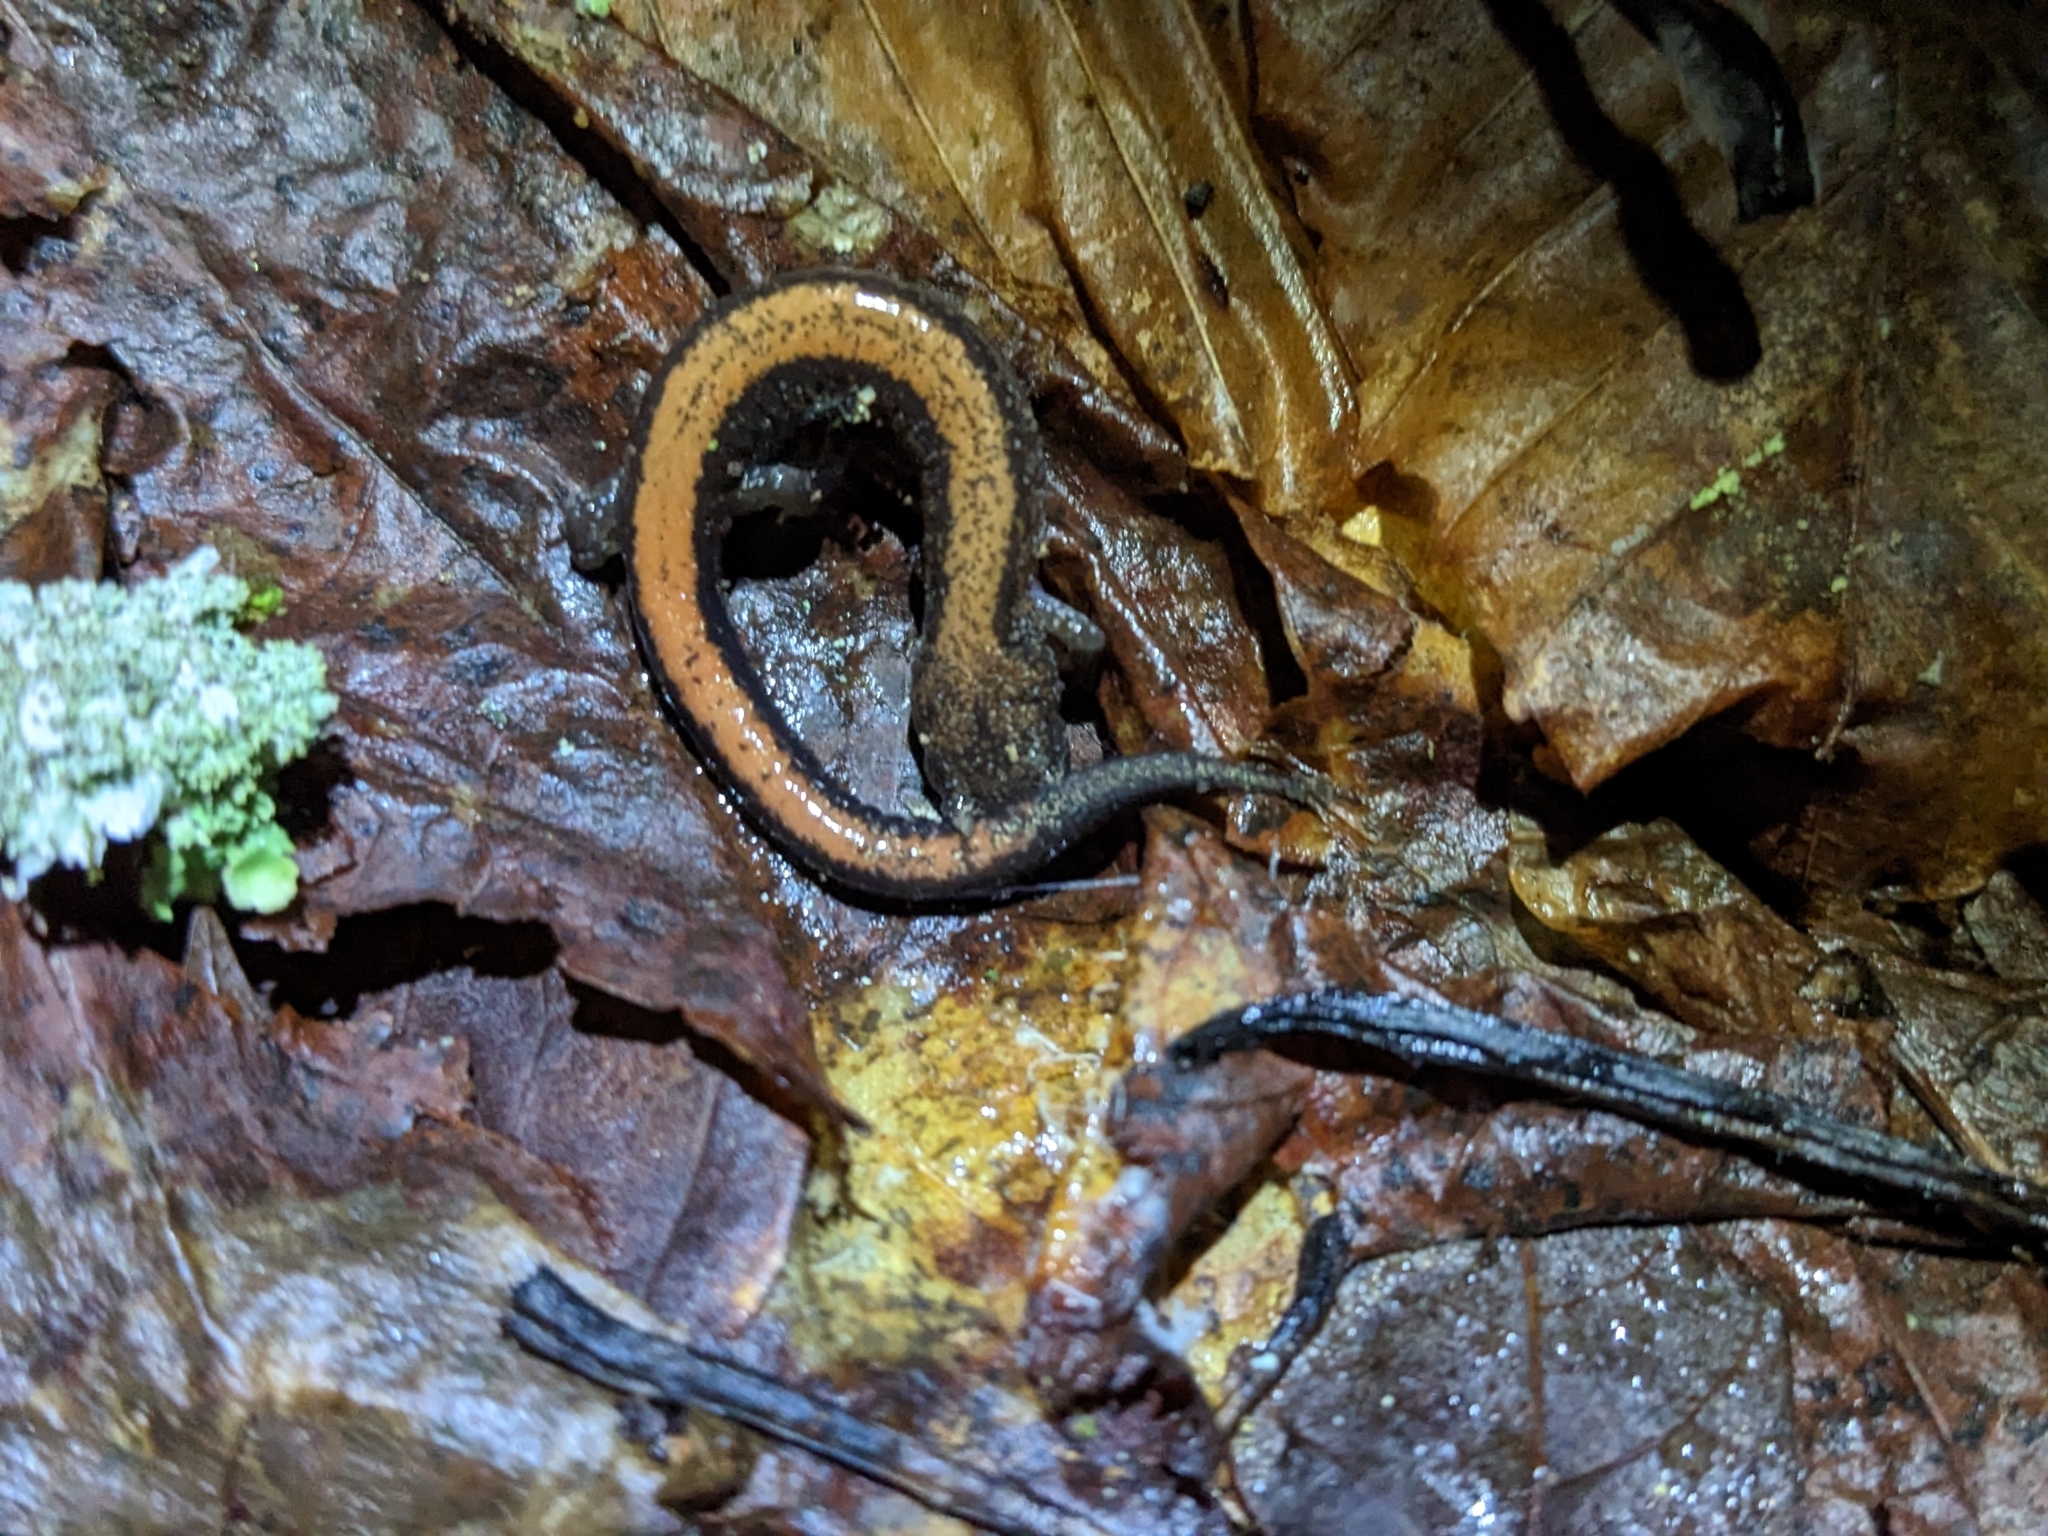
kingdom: Animalia
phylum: Chordata
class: Amphibia
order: Caudata
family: Plethodontidae
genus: Plethodon
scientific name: Plethodon cinereus
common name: Redback salamander
